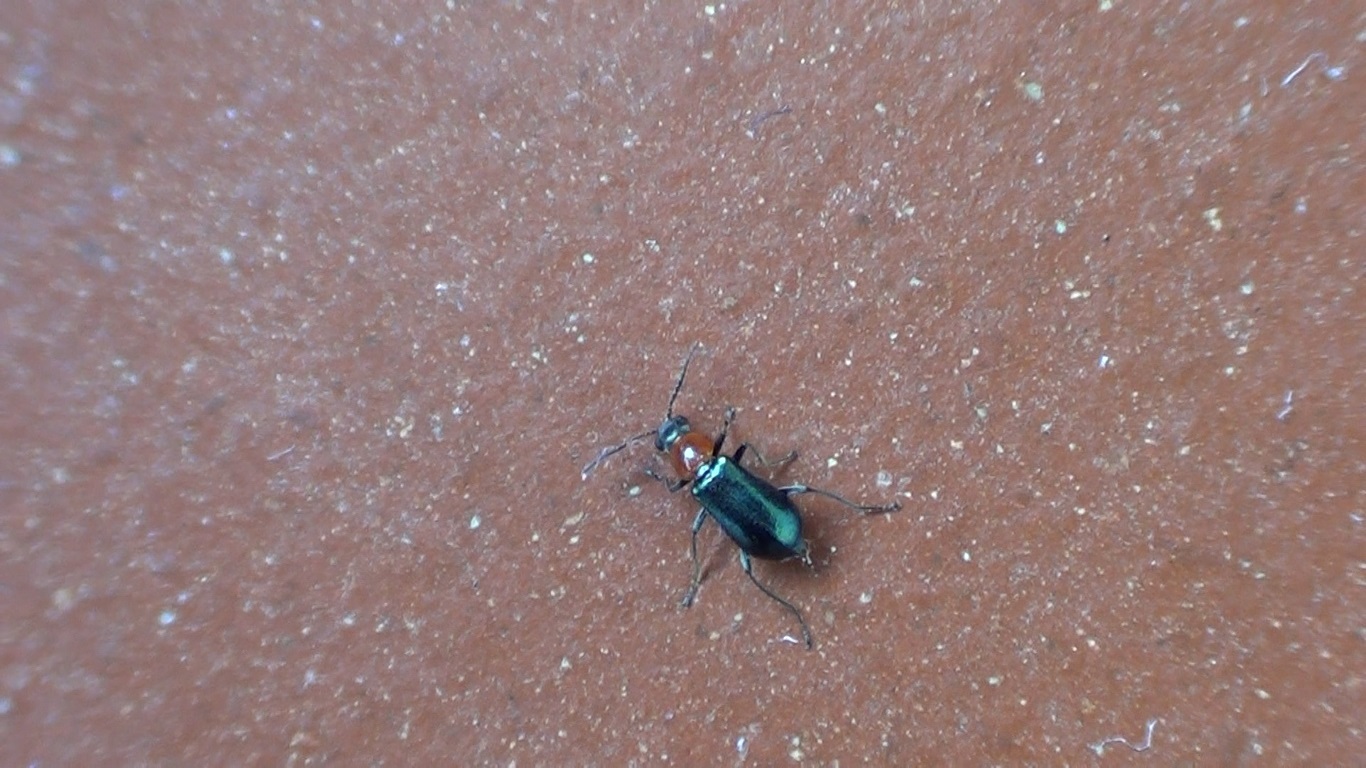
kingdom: Animalia
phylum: Arthropoda
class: Insecta
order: Coleoptera
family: Malachiidae
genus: Attalus
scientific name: Attalus cyaneus
